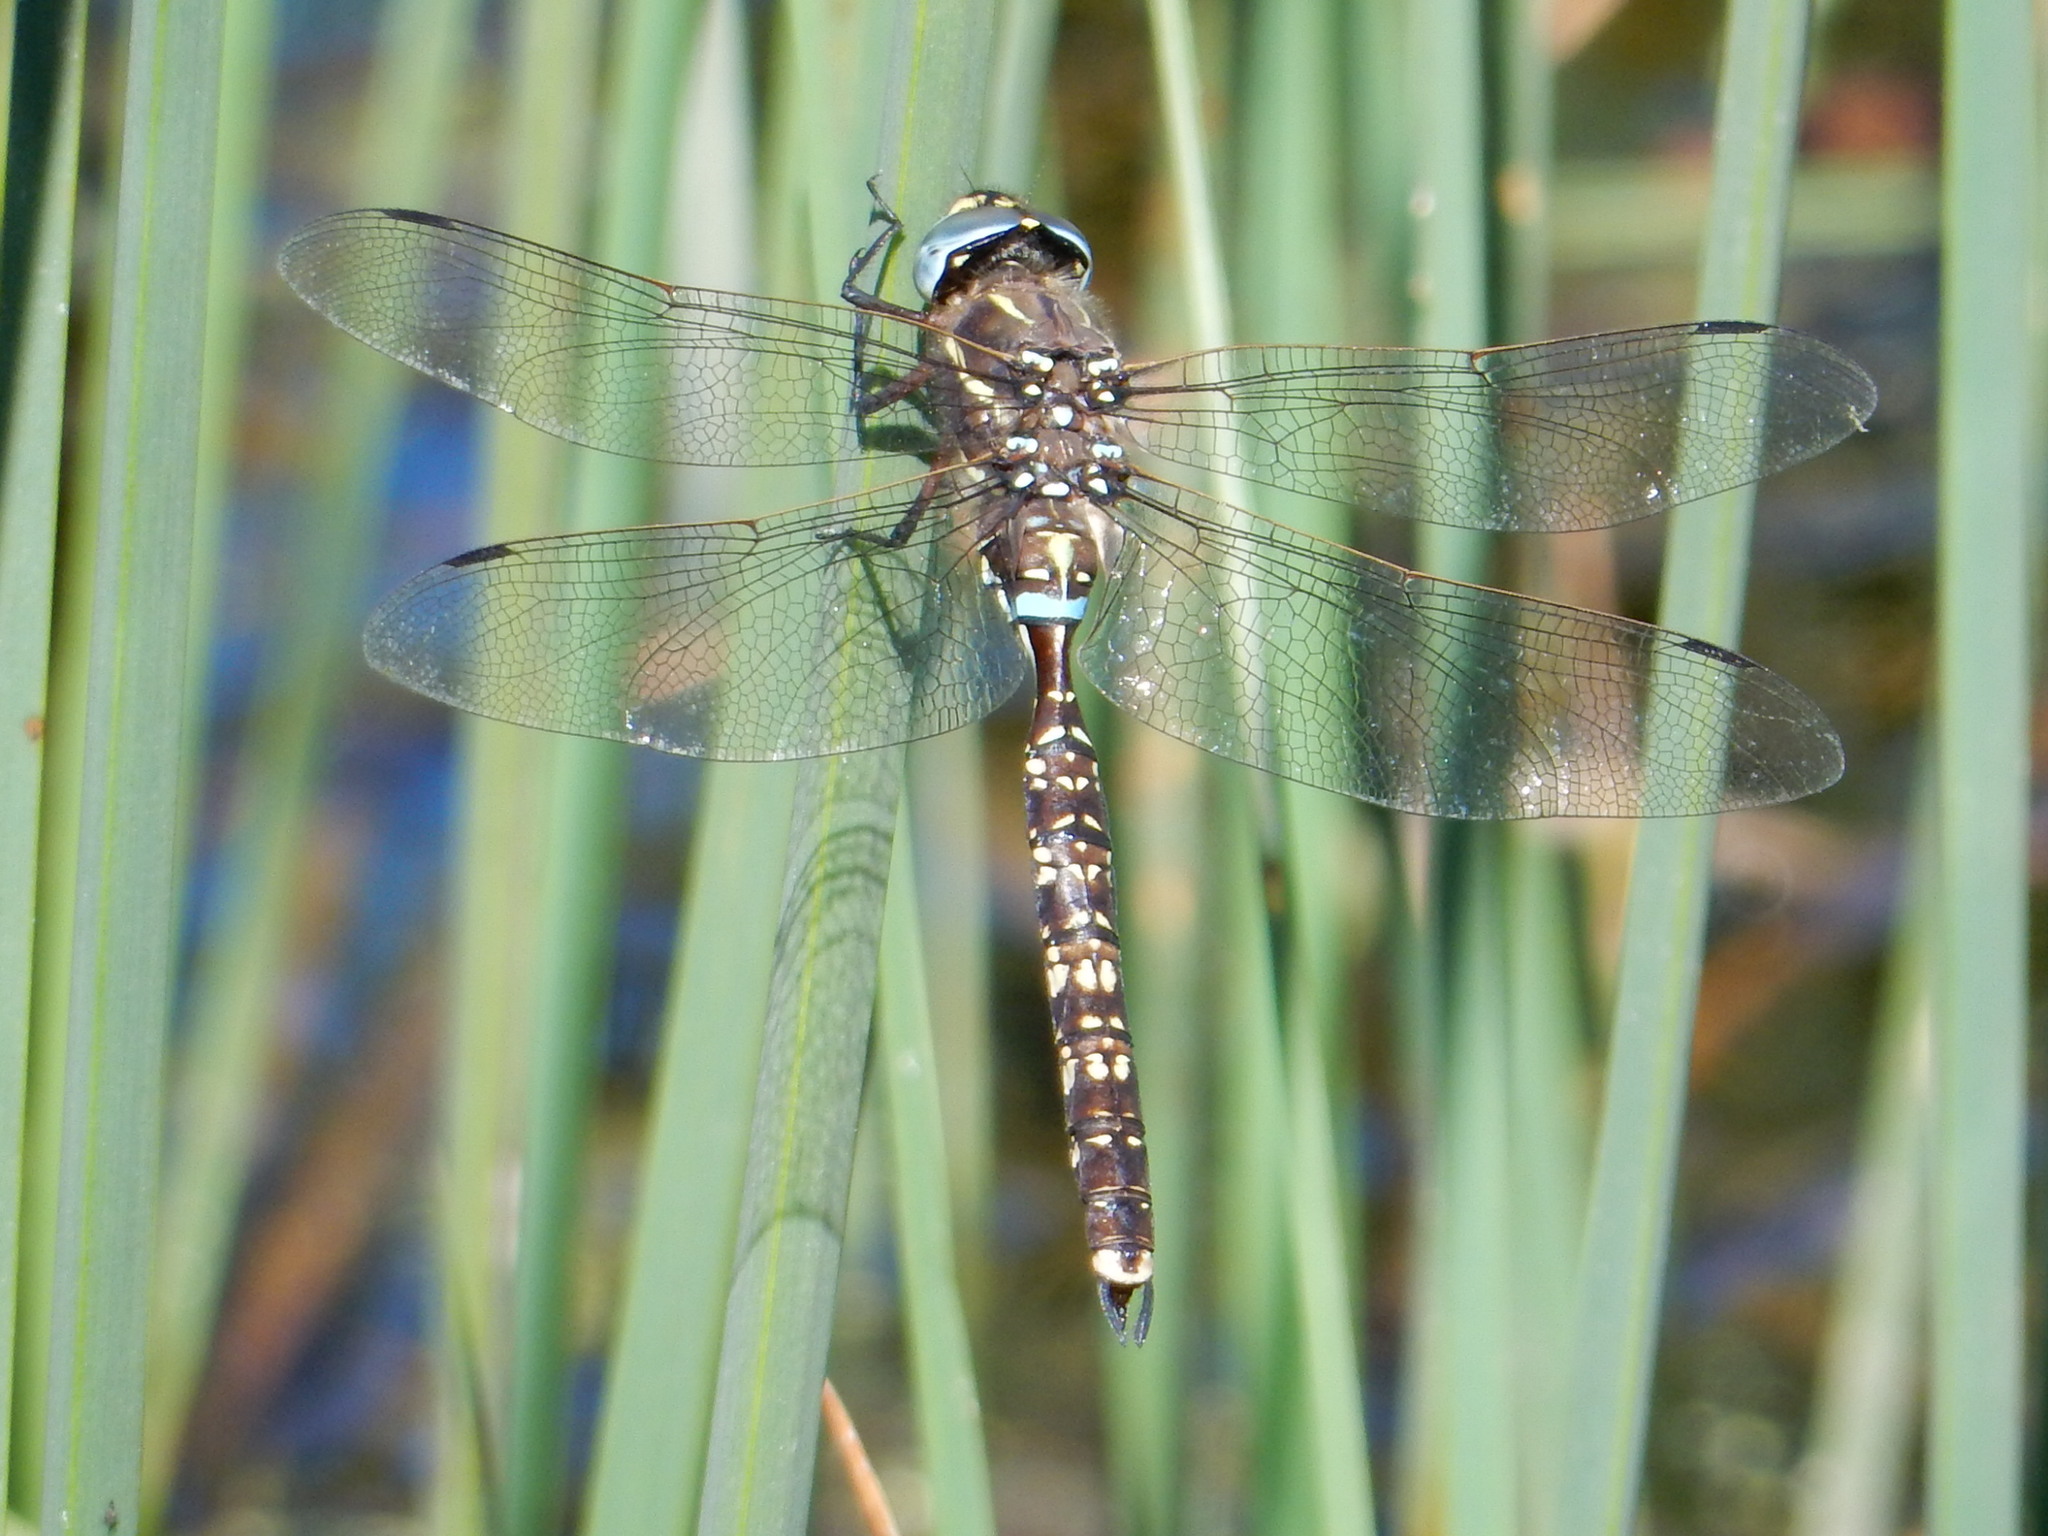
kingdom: Animalia
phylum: Arthropoda
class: Insecta
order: Odonata
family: Aeshnidae
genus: Aeshna
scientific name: Aeshna brevistyla
